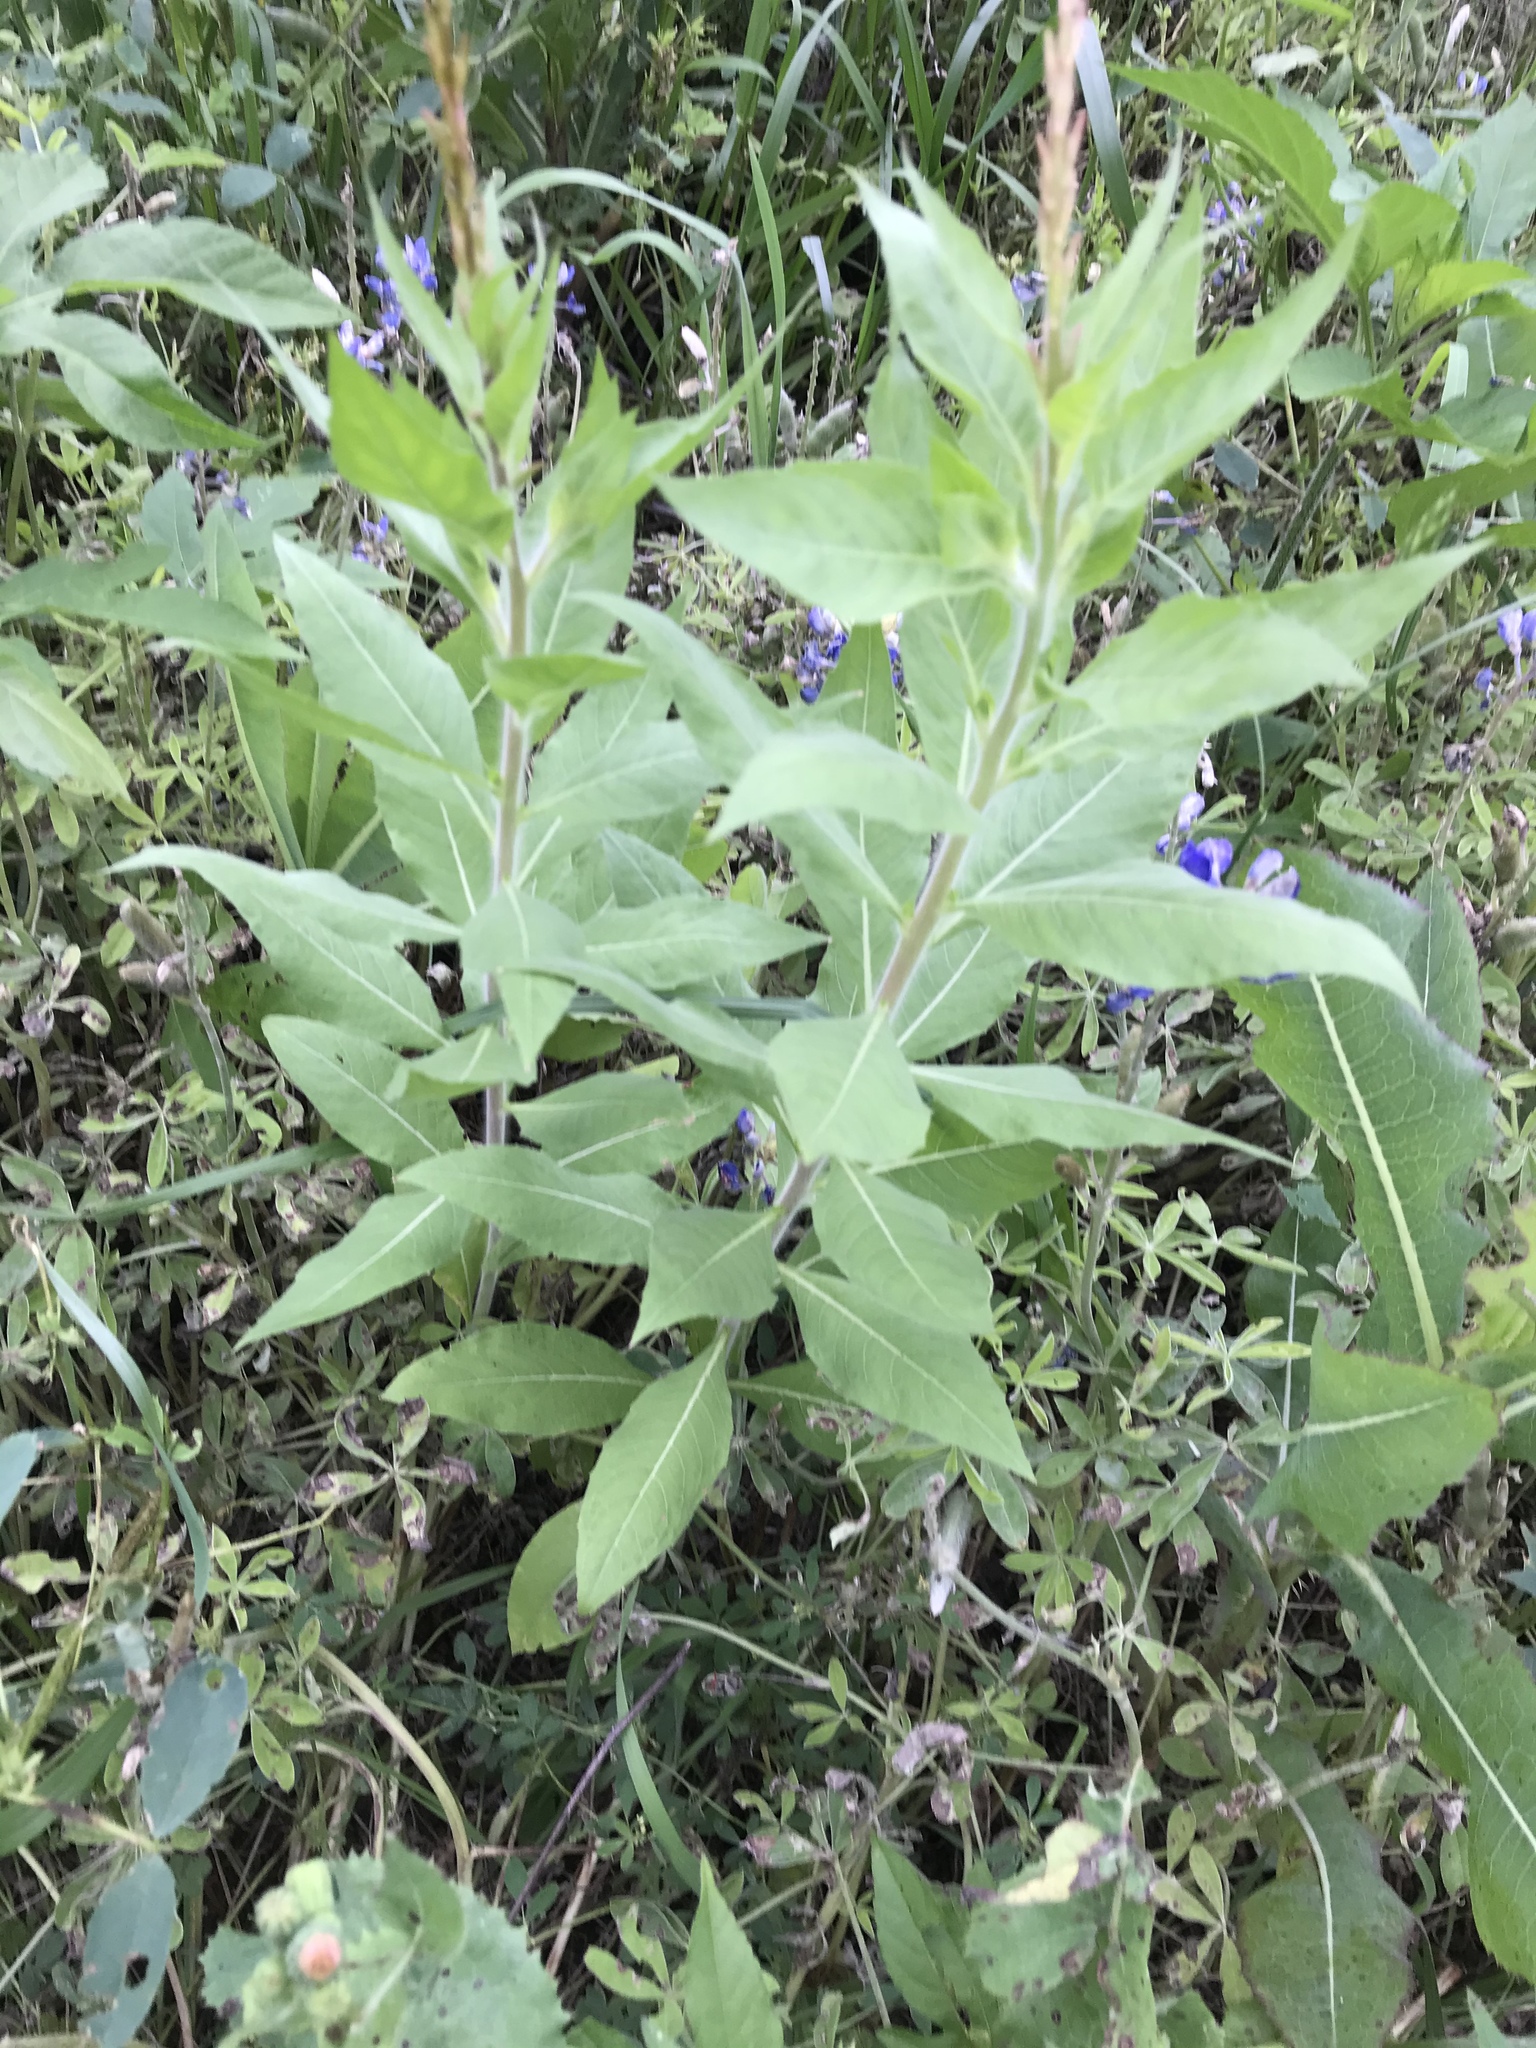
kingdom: Plantae
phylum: Tracheophyta
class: Magnoliopsida
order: Myrtales
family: Onagraceae
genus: Oenothera
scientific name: Oenothera curtiflora
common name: Velvetweed
